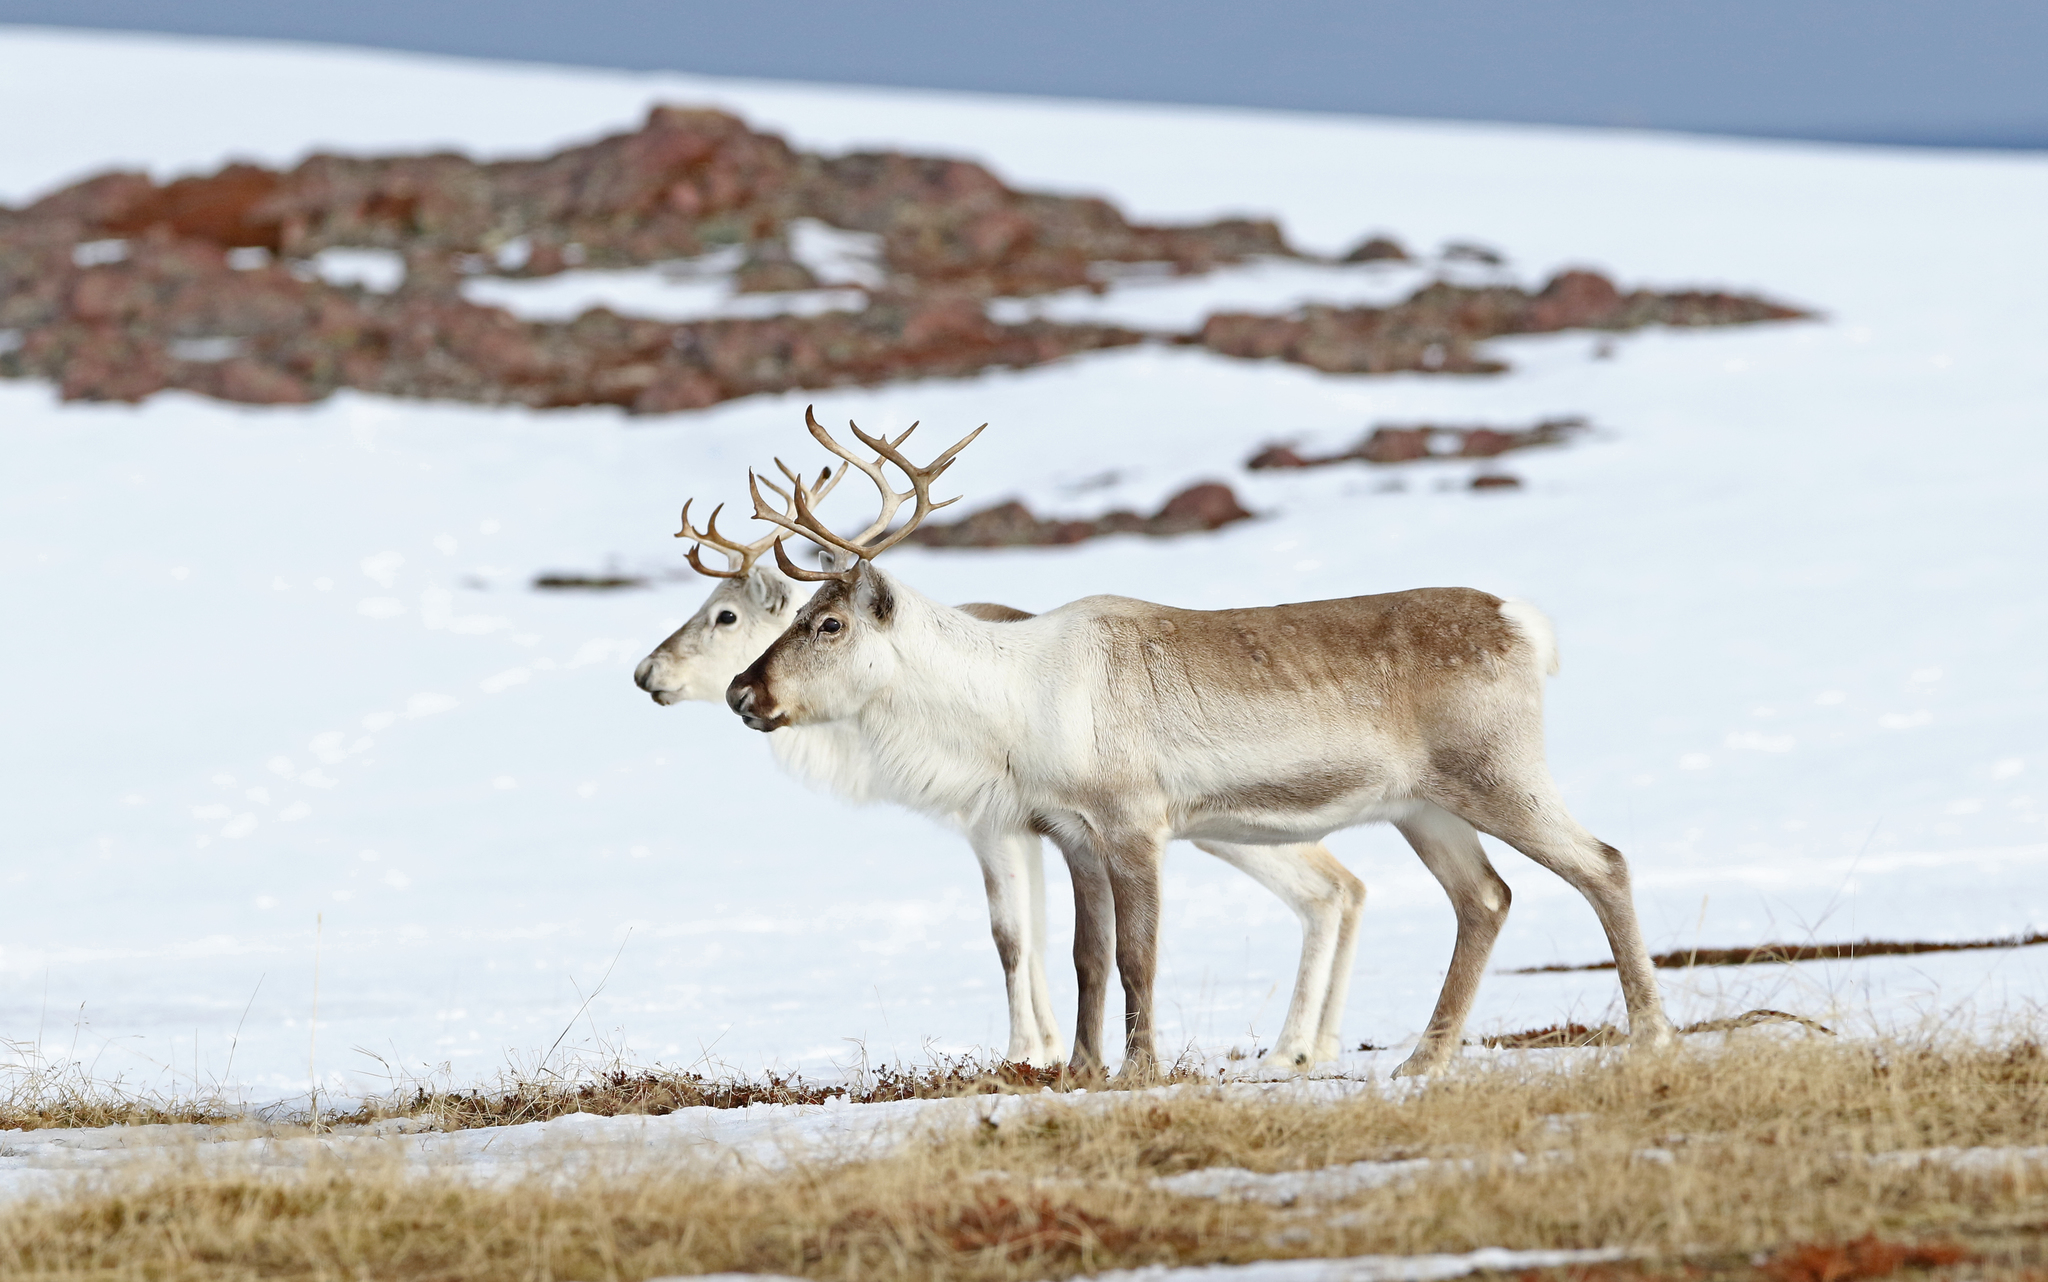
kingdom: Animalia
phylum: Chordata
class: Mammalia
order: Artiodactyla
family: Cervidae
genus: Rangifer
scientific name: Rangifer tarandus
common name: Reindeer
